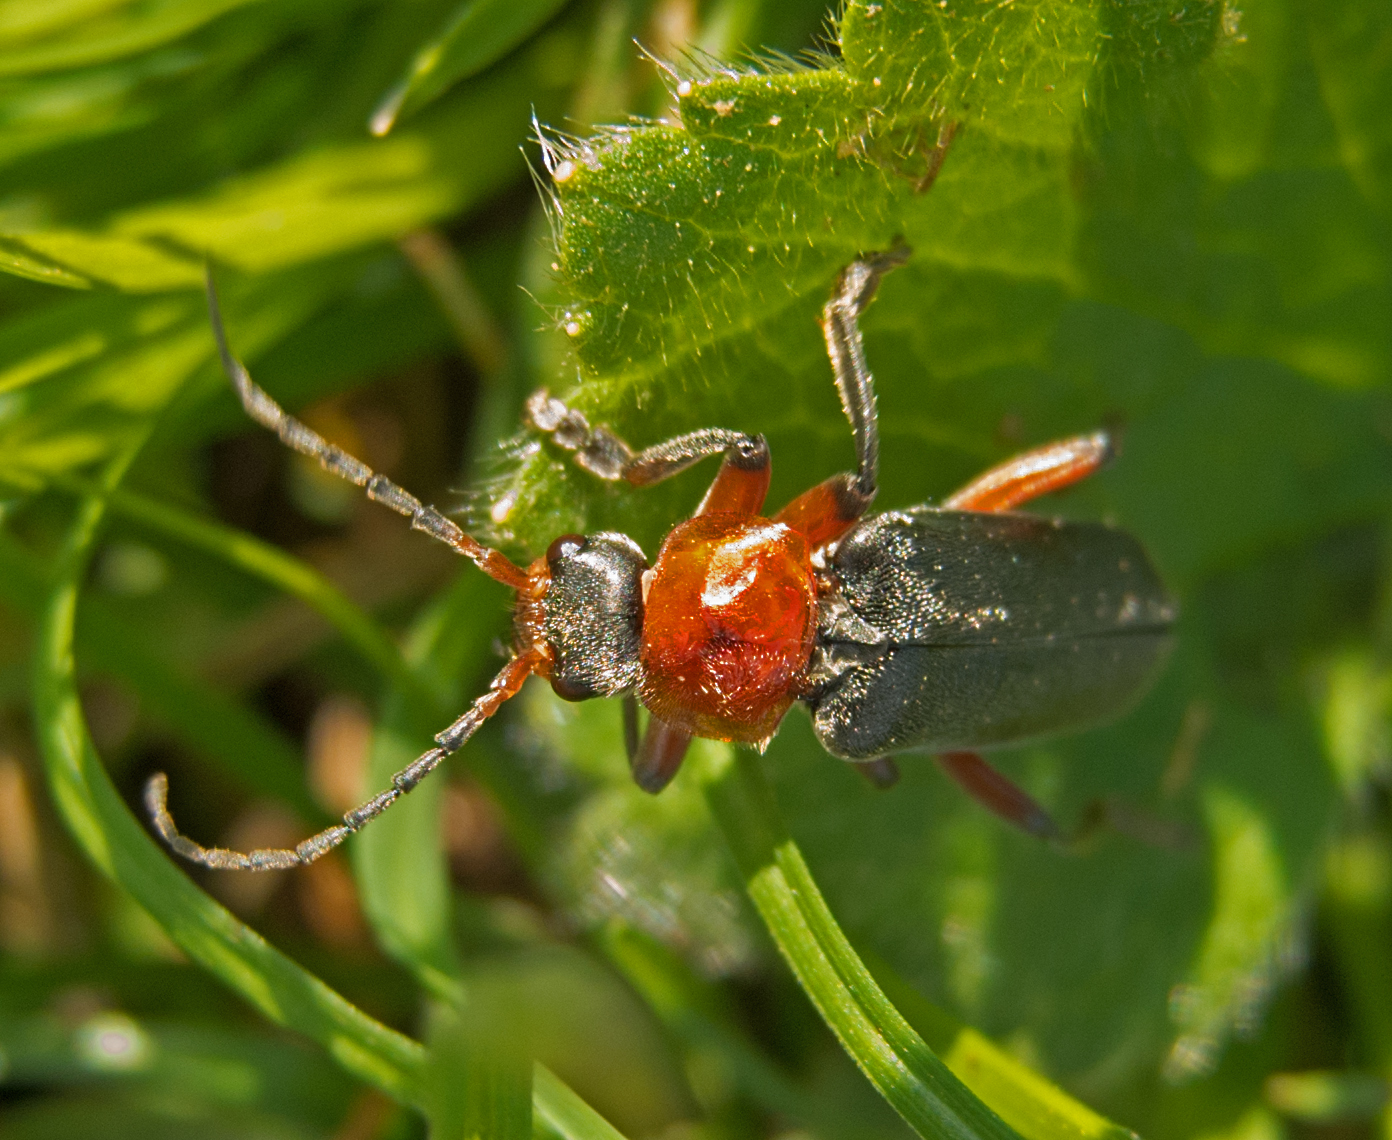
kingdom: Animalia
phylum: Arthropoda
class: Insecta
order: Coleoptera
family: Cantharidae
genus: Cantharis
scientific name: Cantharis rustica
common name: Soldier beetle
